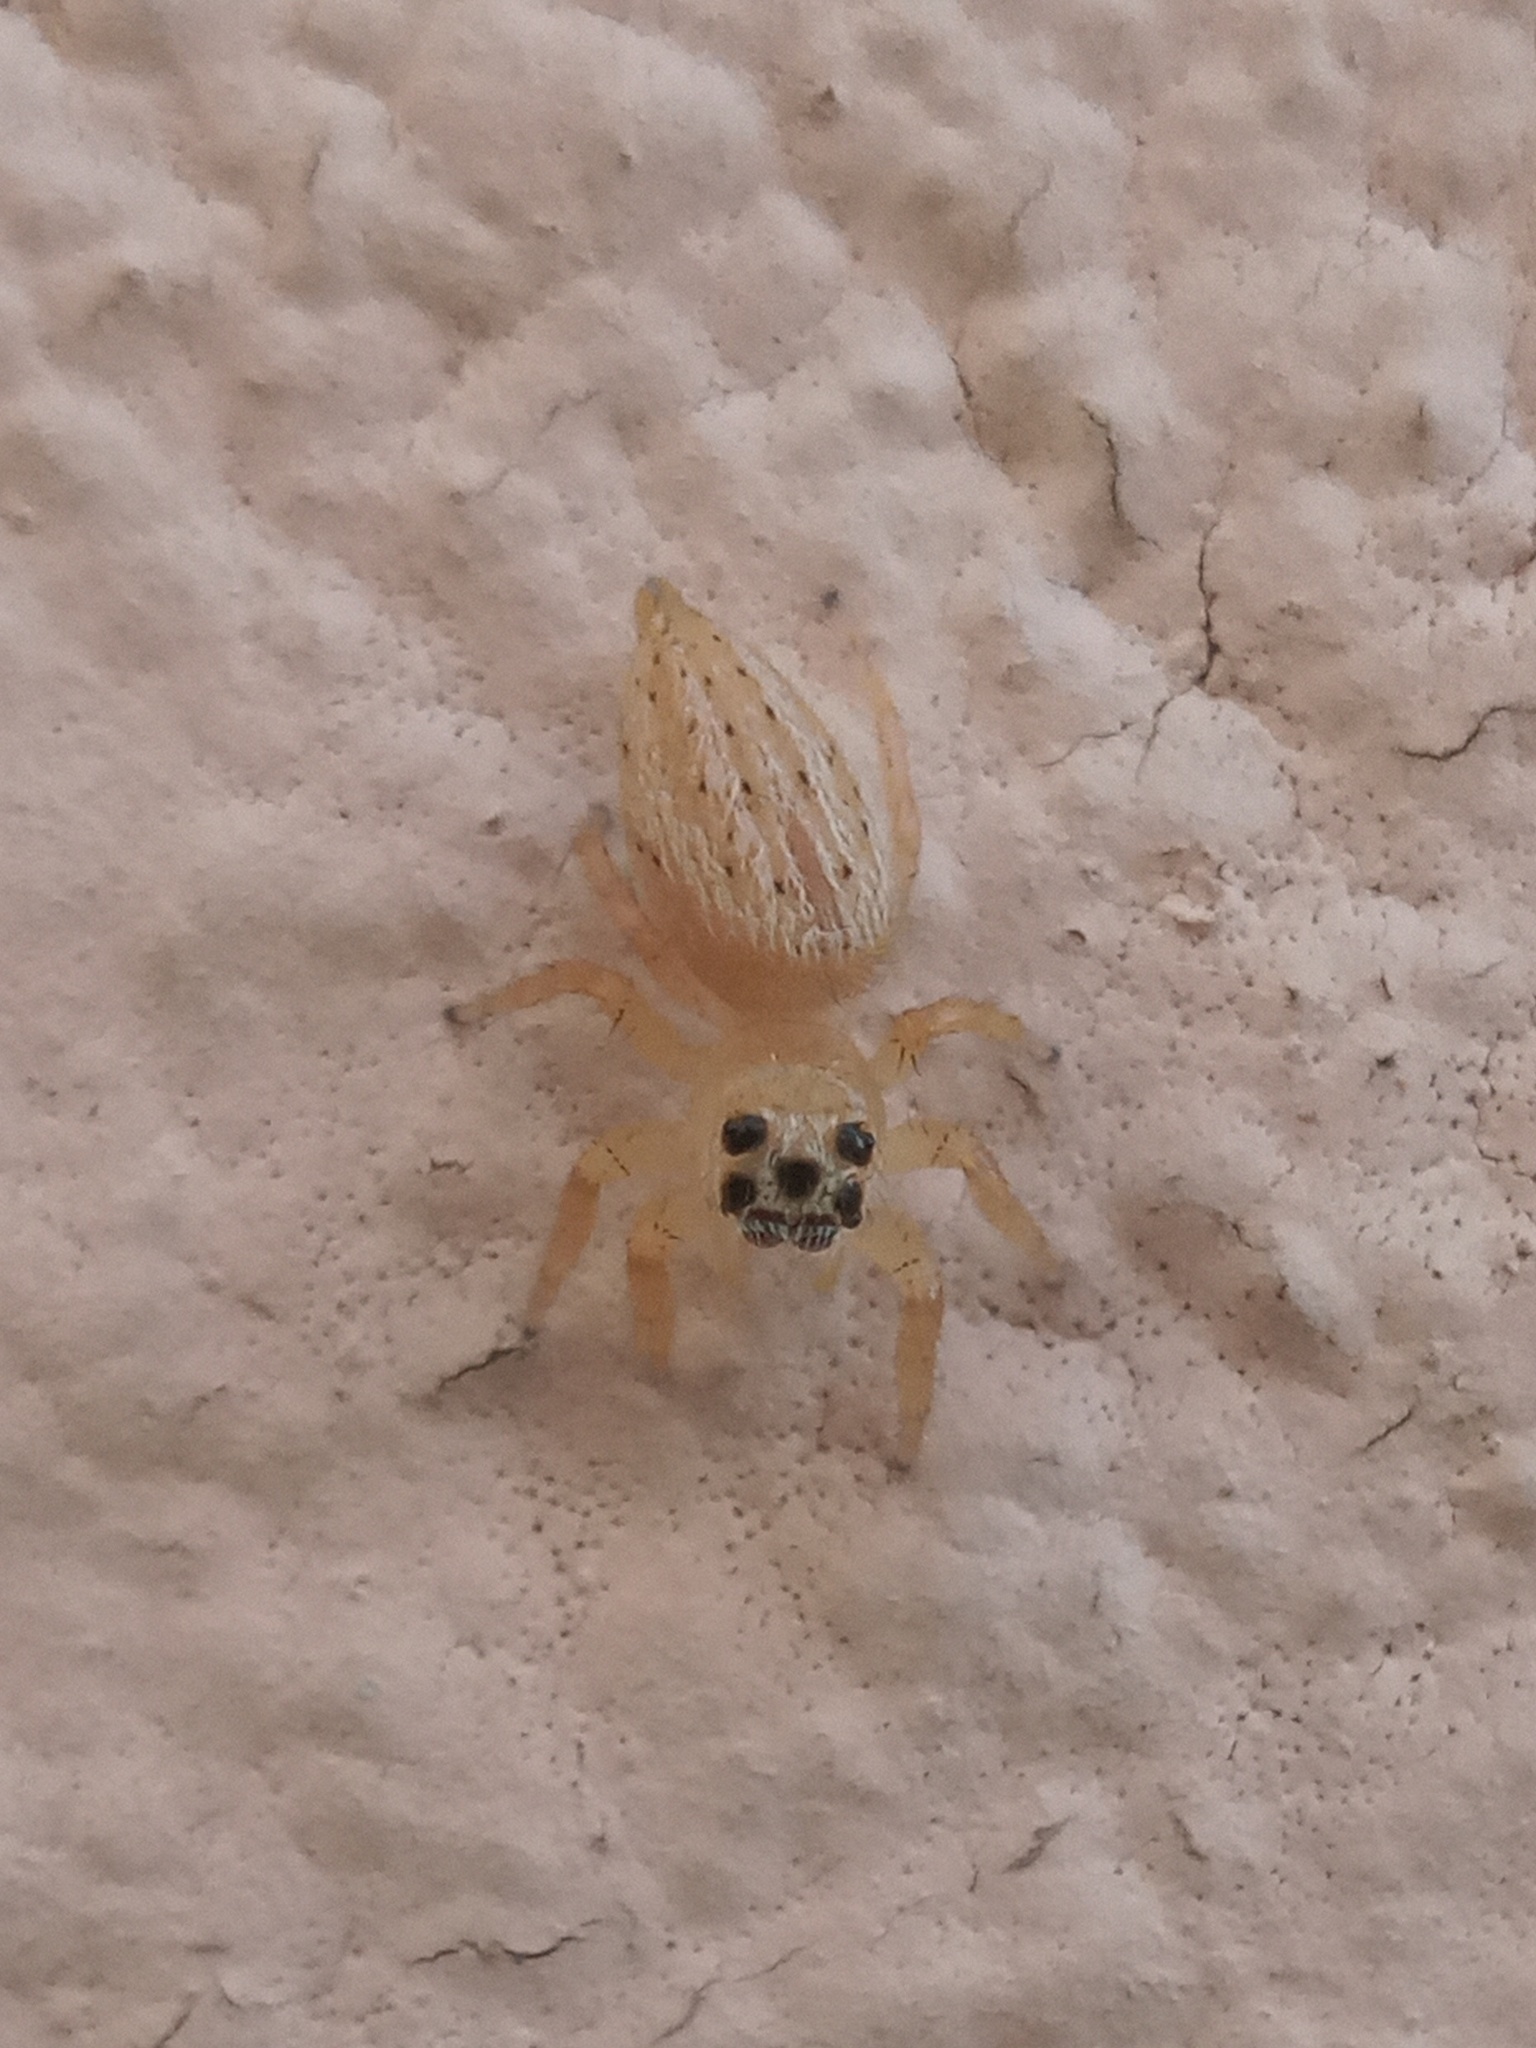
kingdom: Animalia
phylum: Arthropoda
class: Arachnida
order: Araneae
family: Salticidae
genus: Colonus
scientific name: Colonus puerperus
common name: Jumping spiders
